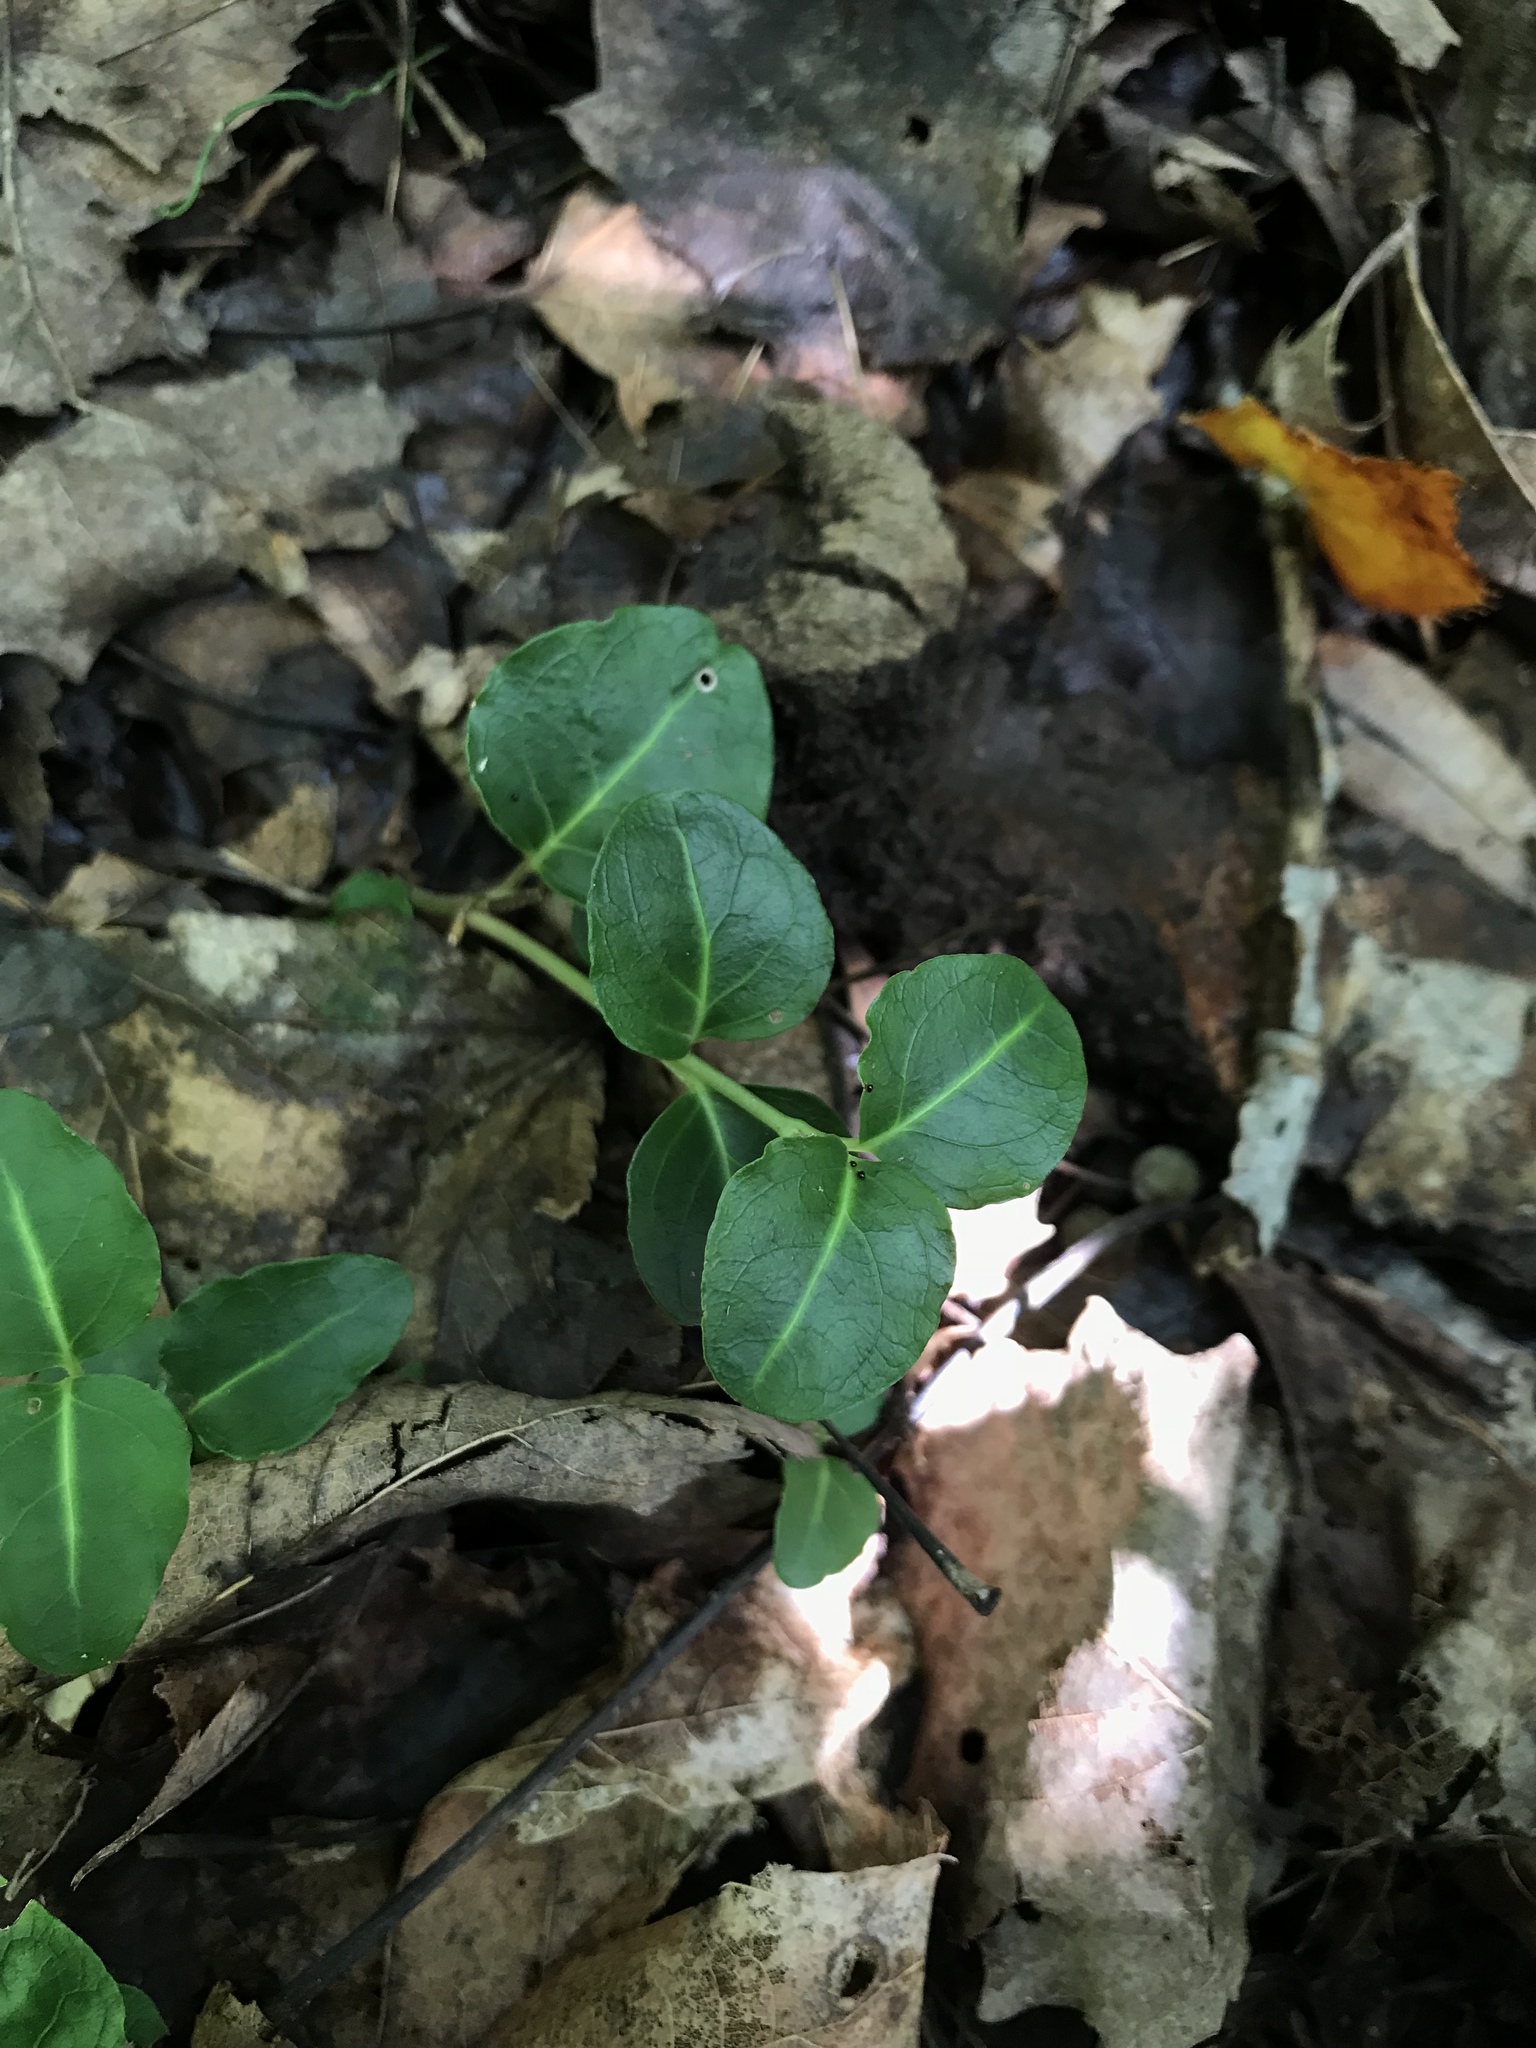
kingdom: Plantae
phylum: Tracheophyta
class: Magnoliopsida
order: Gentianales
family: Rubiaceae
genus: Mitchella
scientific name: Mitchella repens
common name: Partridge-berry
